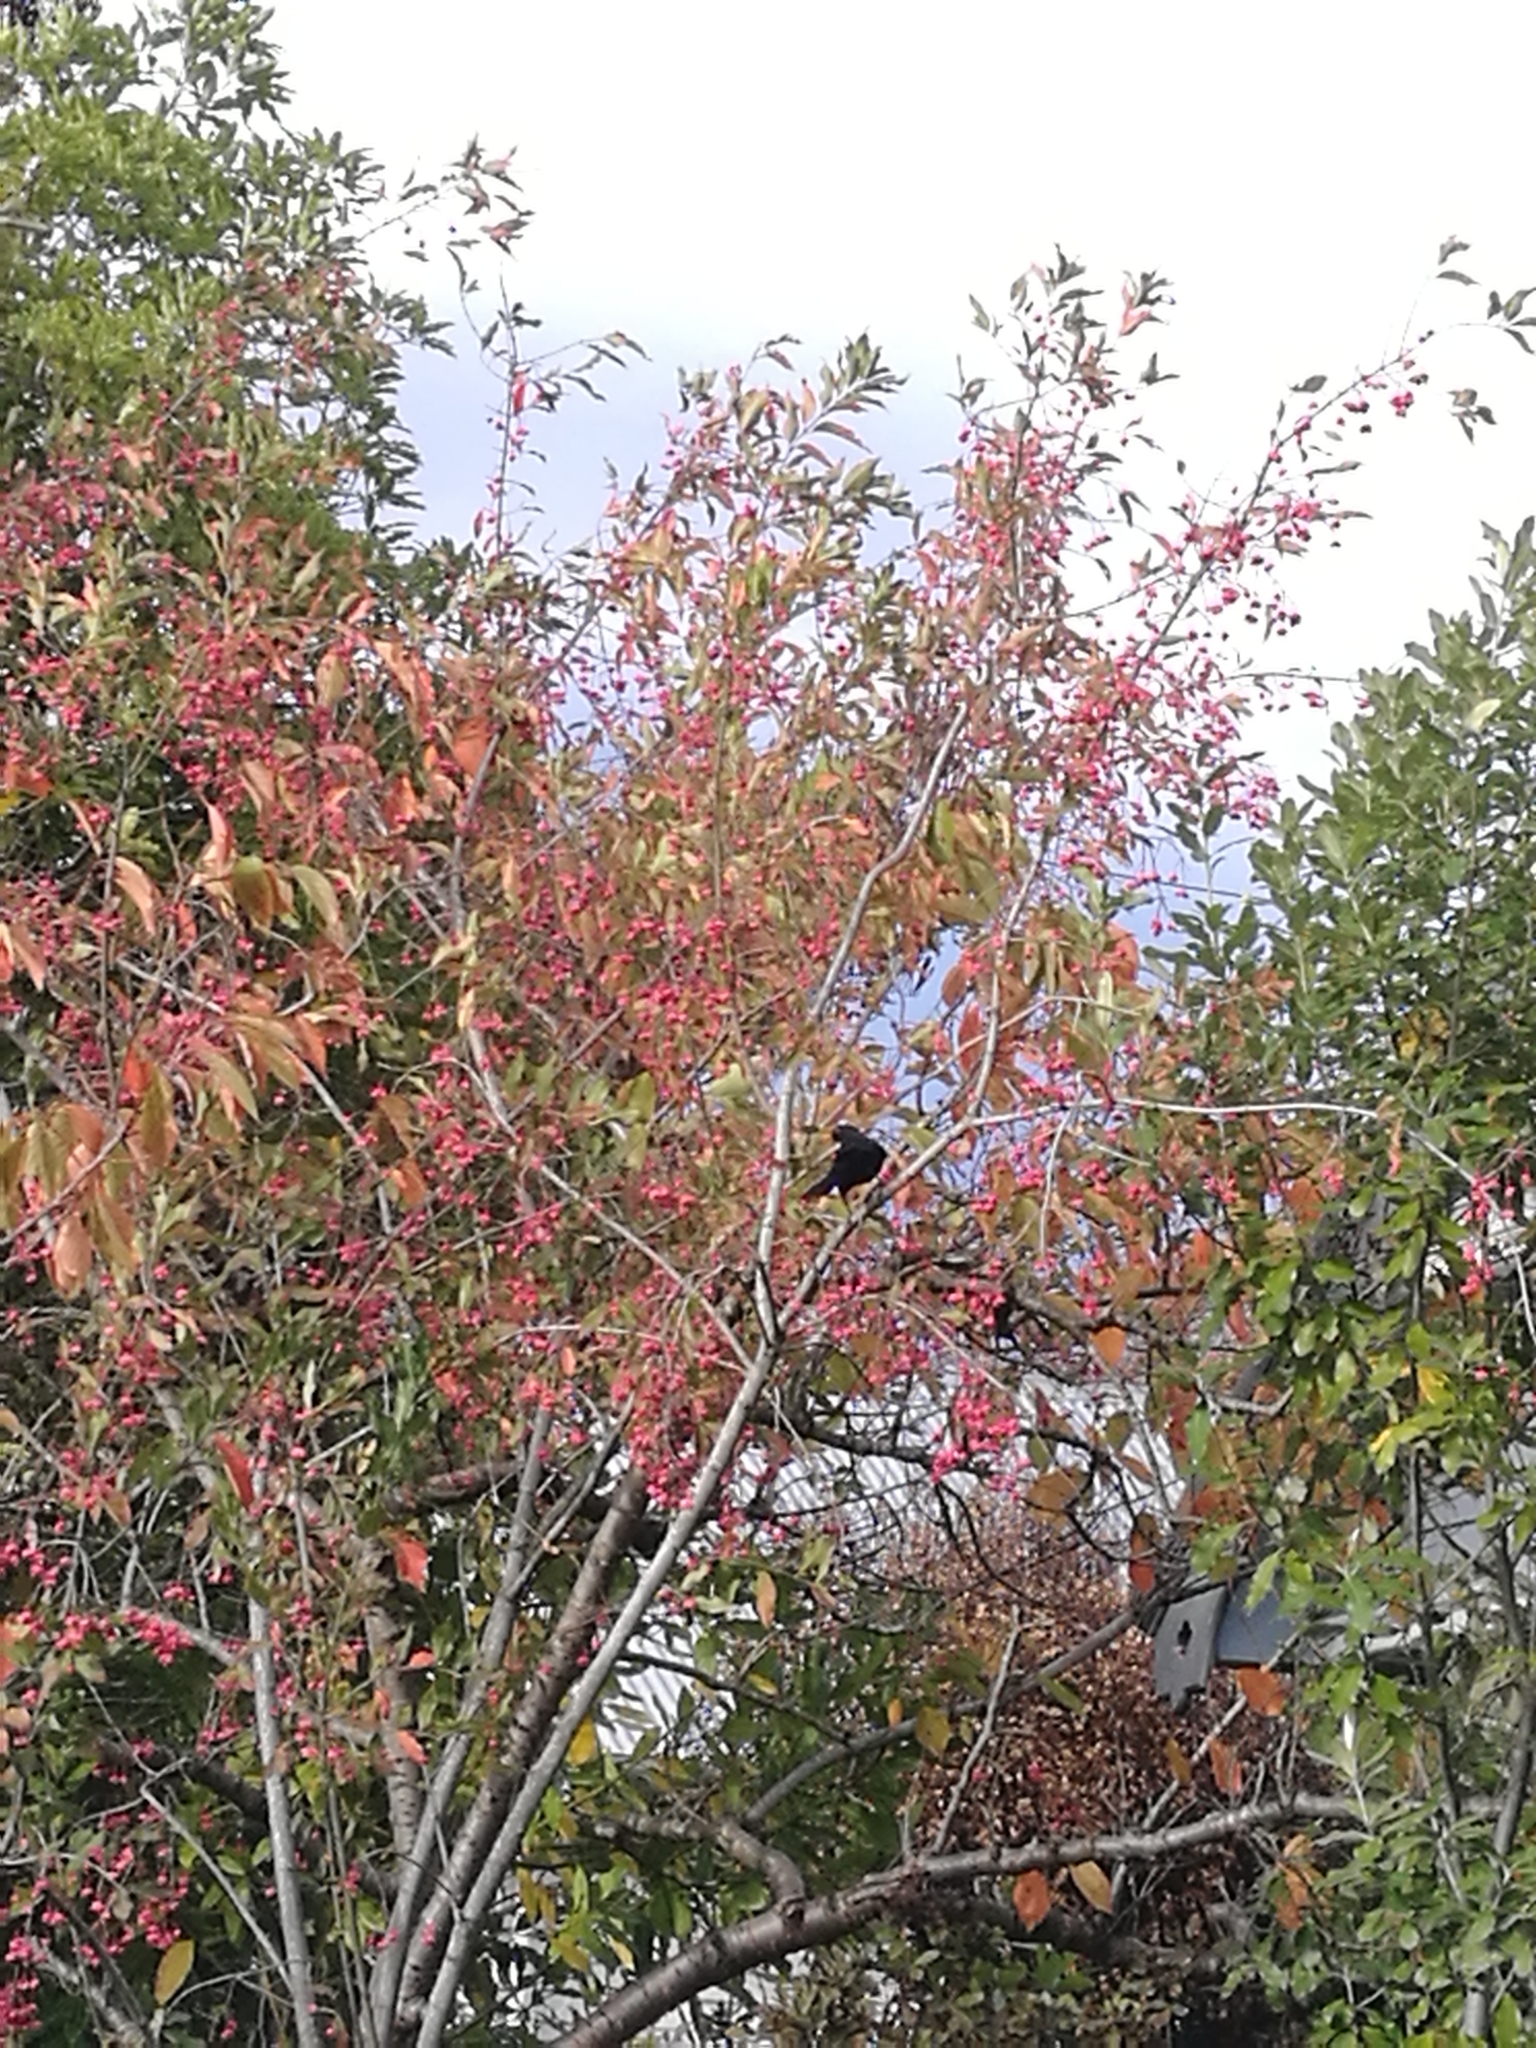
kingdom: Animalia
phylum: Chordata
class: Aves
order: Passeriformes
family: Turdidae
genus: Turdus
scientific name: Turdus merula
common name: Common blackbird
